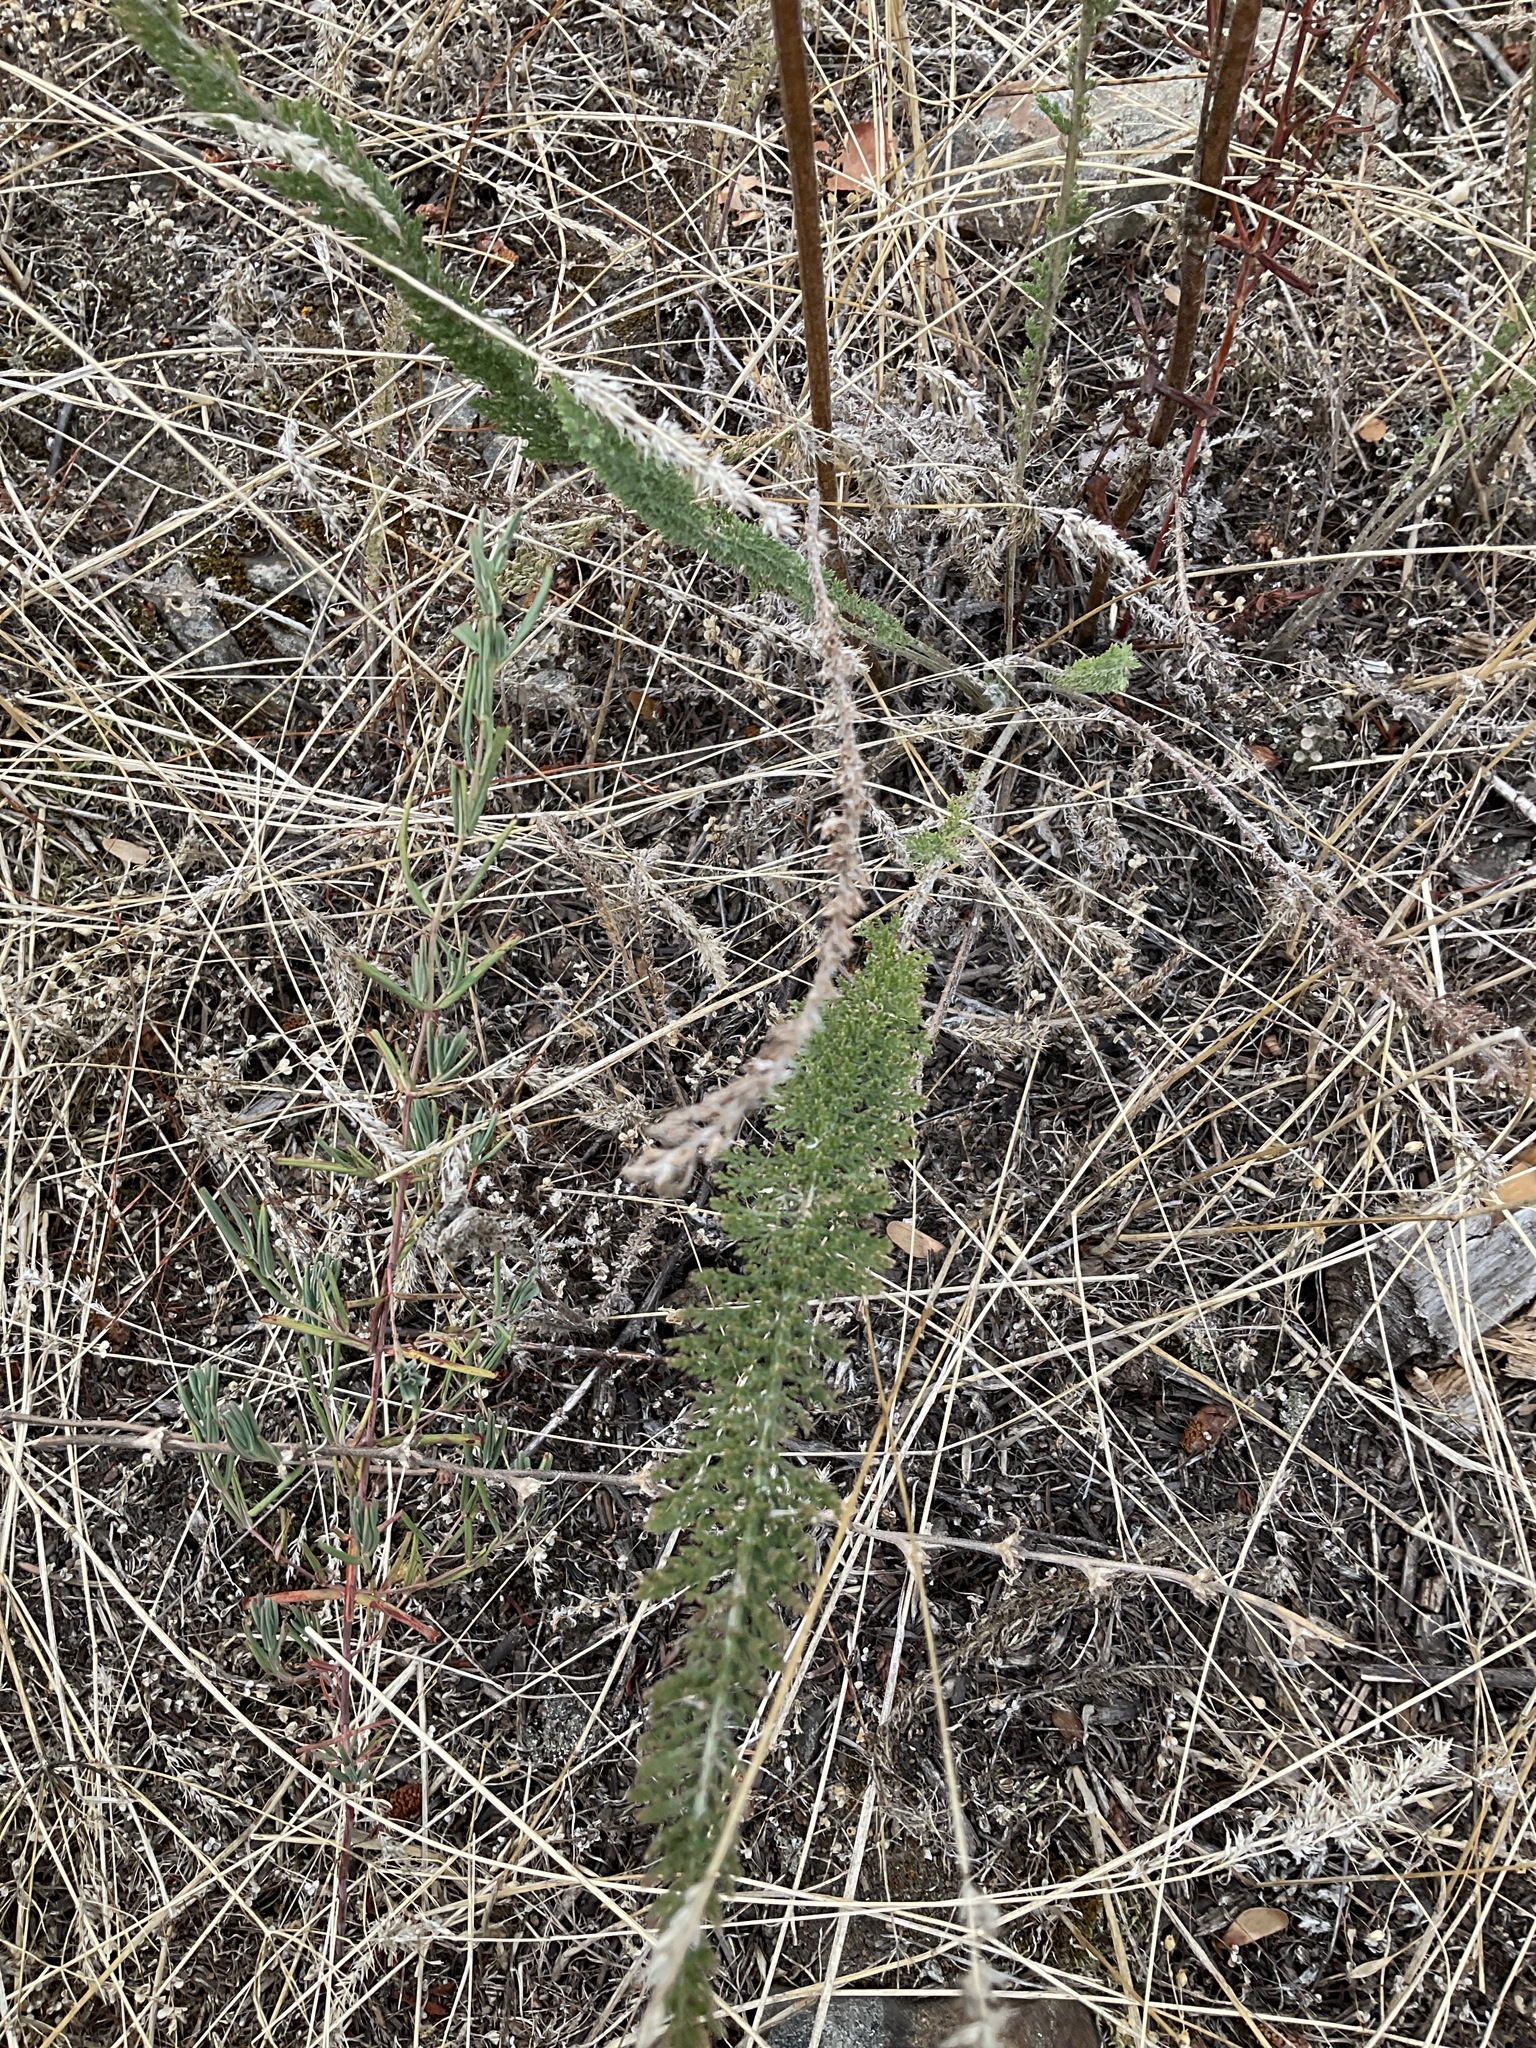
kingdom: Plantae
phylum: Tracheophyta
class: Magnoliopsida
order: Asterales
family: Asteraceae
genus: Achillea
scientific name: Achillea millefolium
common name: Yarrow
